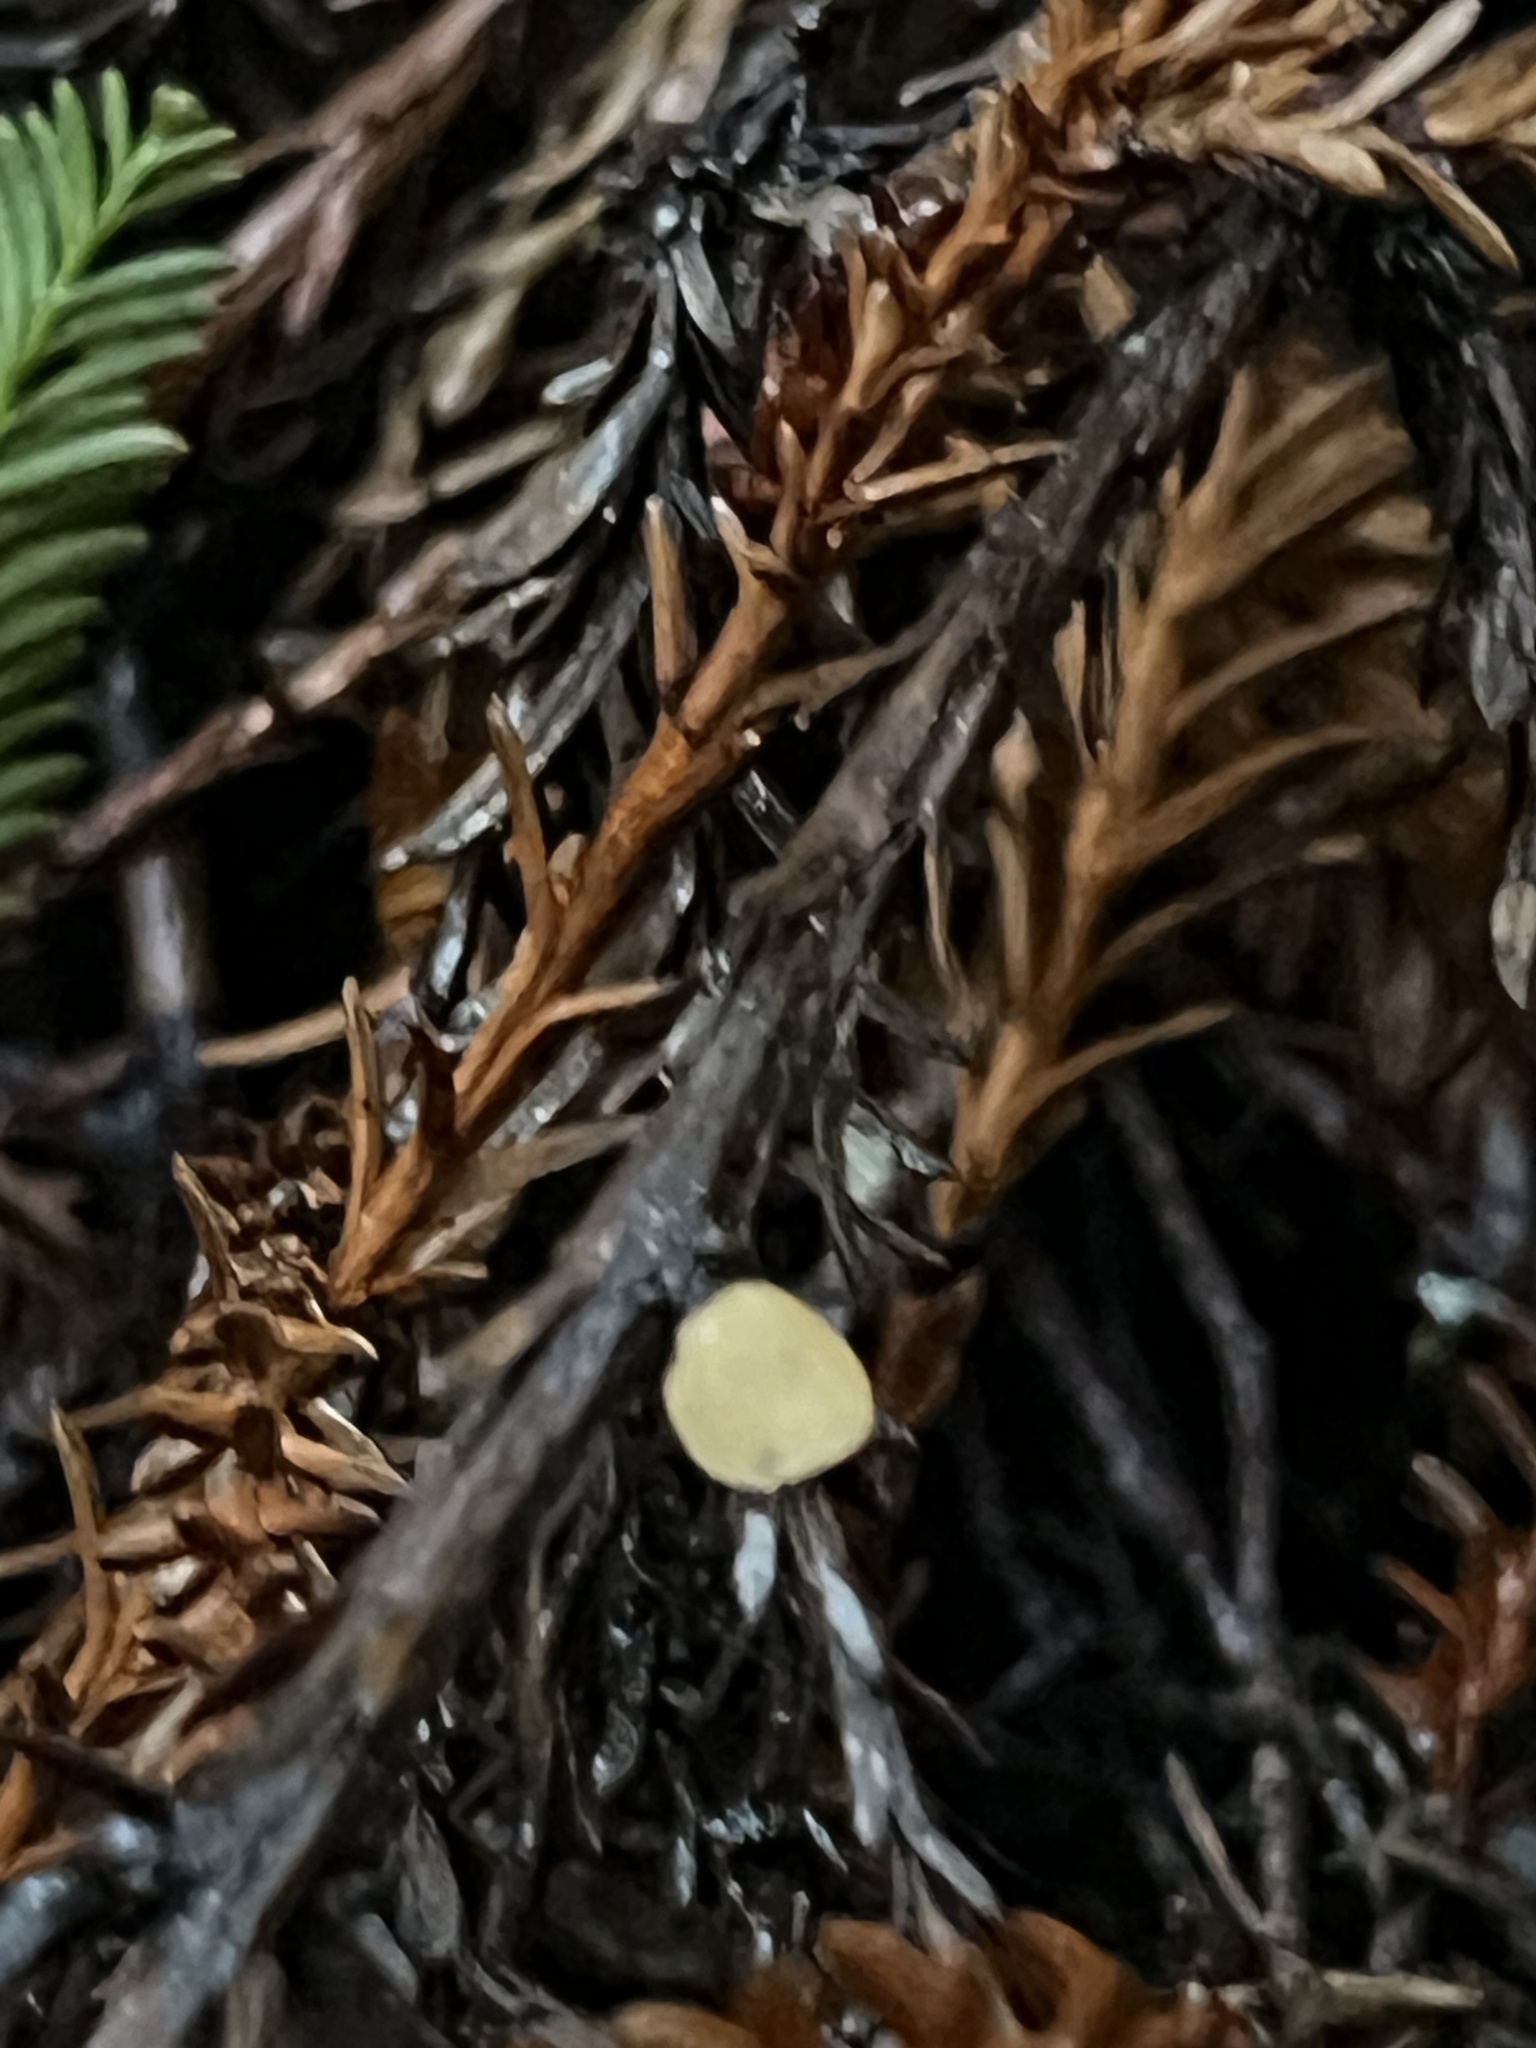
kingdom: Fungi
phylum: Ascomycota
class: Pezizomycetes
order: Pezizales
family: Sarcoscyphaceae
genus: Pithya
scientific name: Pithya cupressina
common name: Juniper disco
